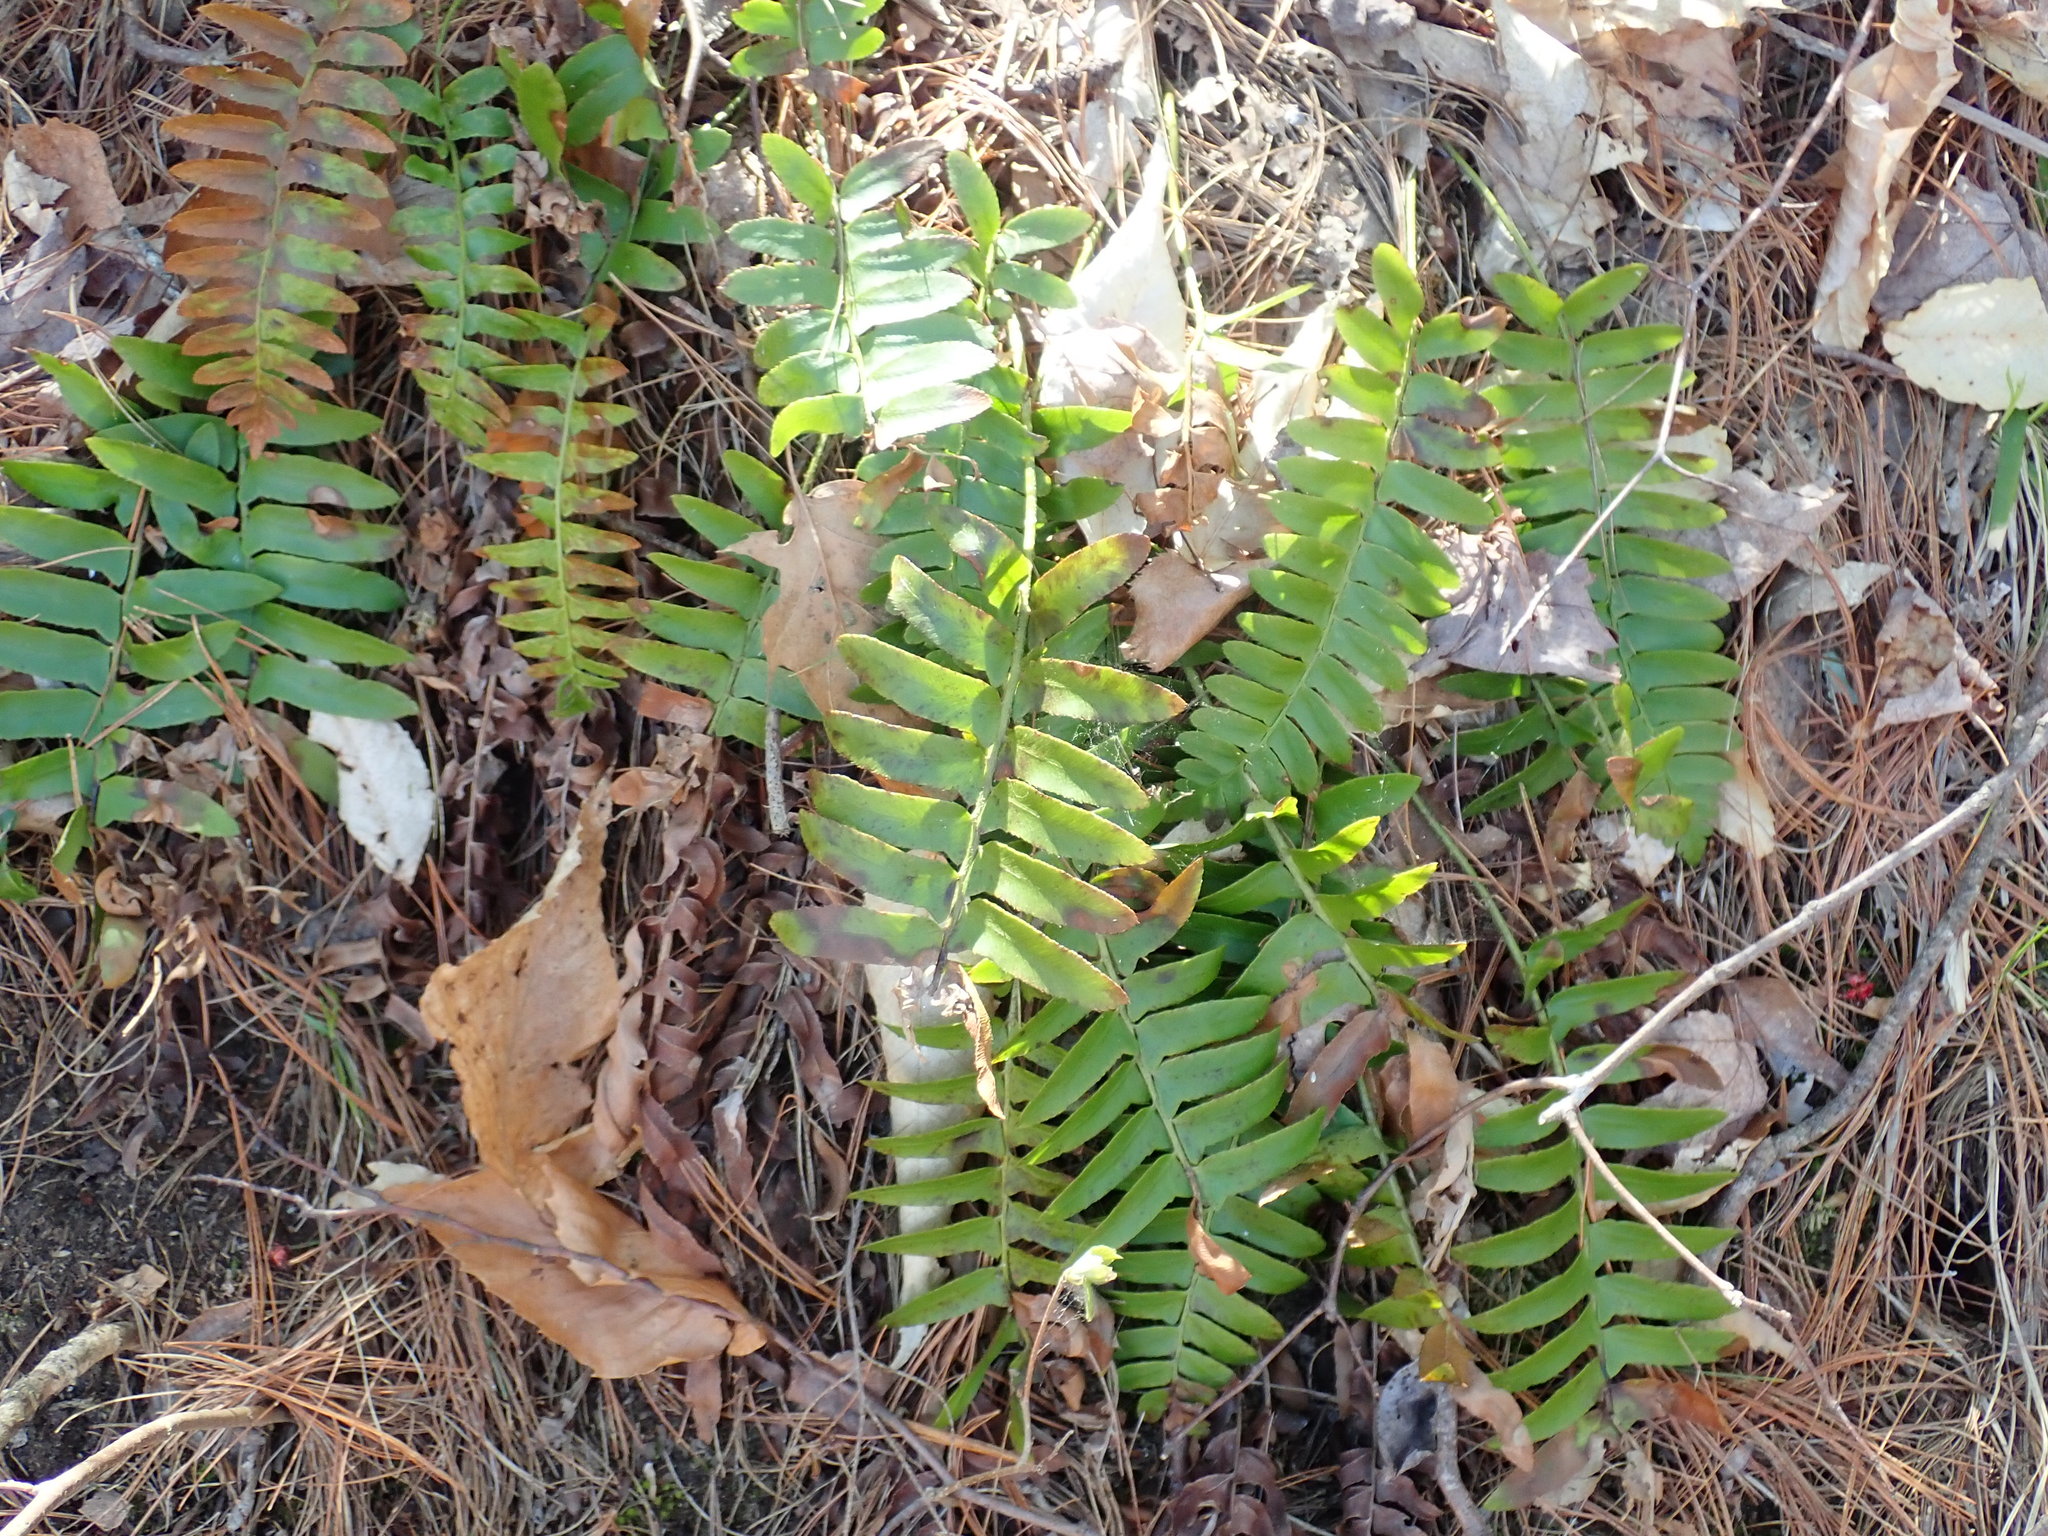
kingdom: Plantae
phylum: Tracheophyta
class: Polypodiopsida
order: Polypodiales
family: Dryopteridaceae
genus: Polystichum
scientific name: Polystichum acrostichoides
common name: Christmas fern
